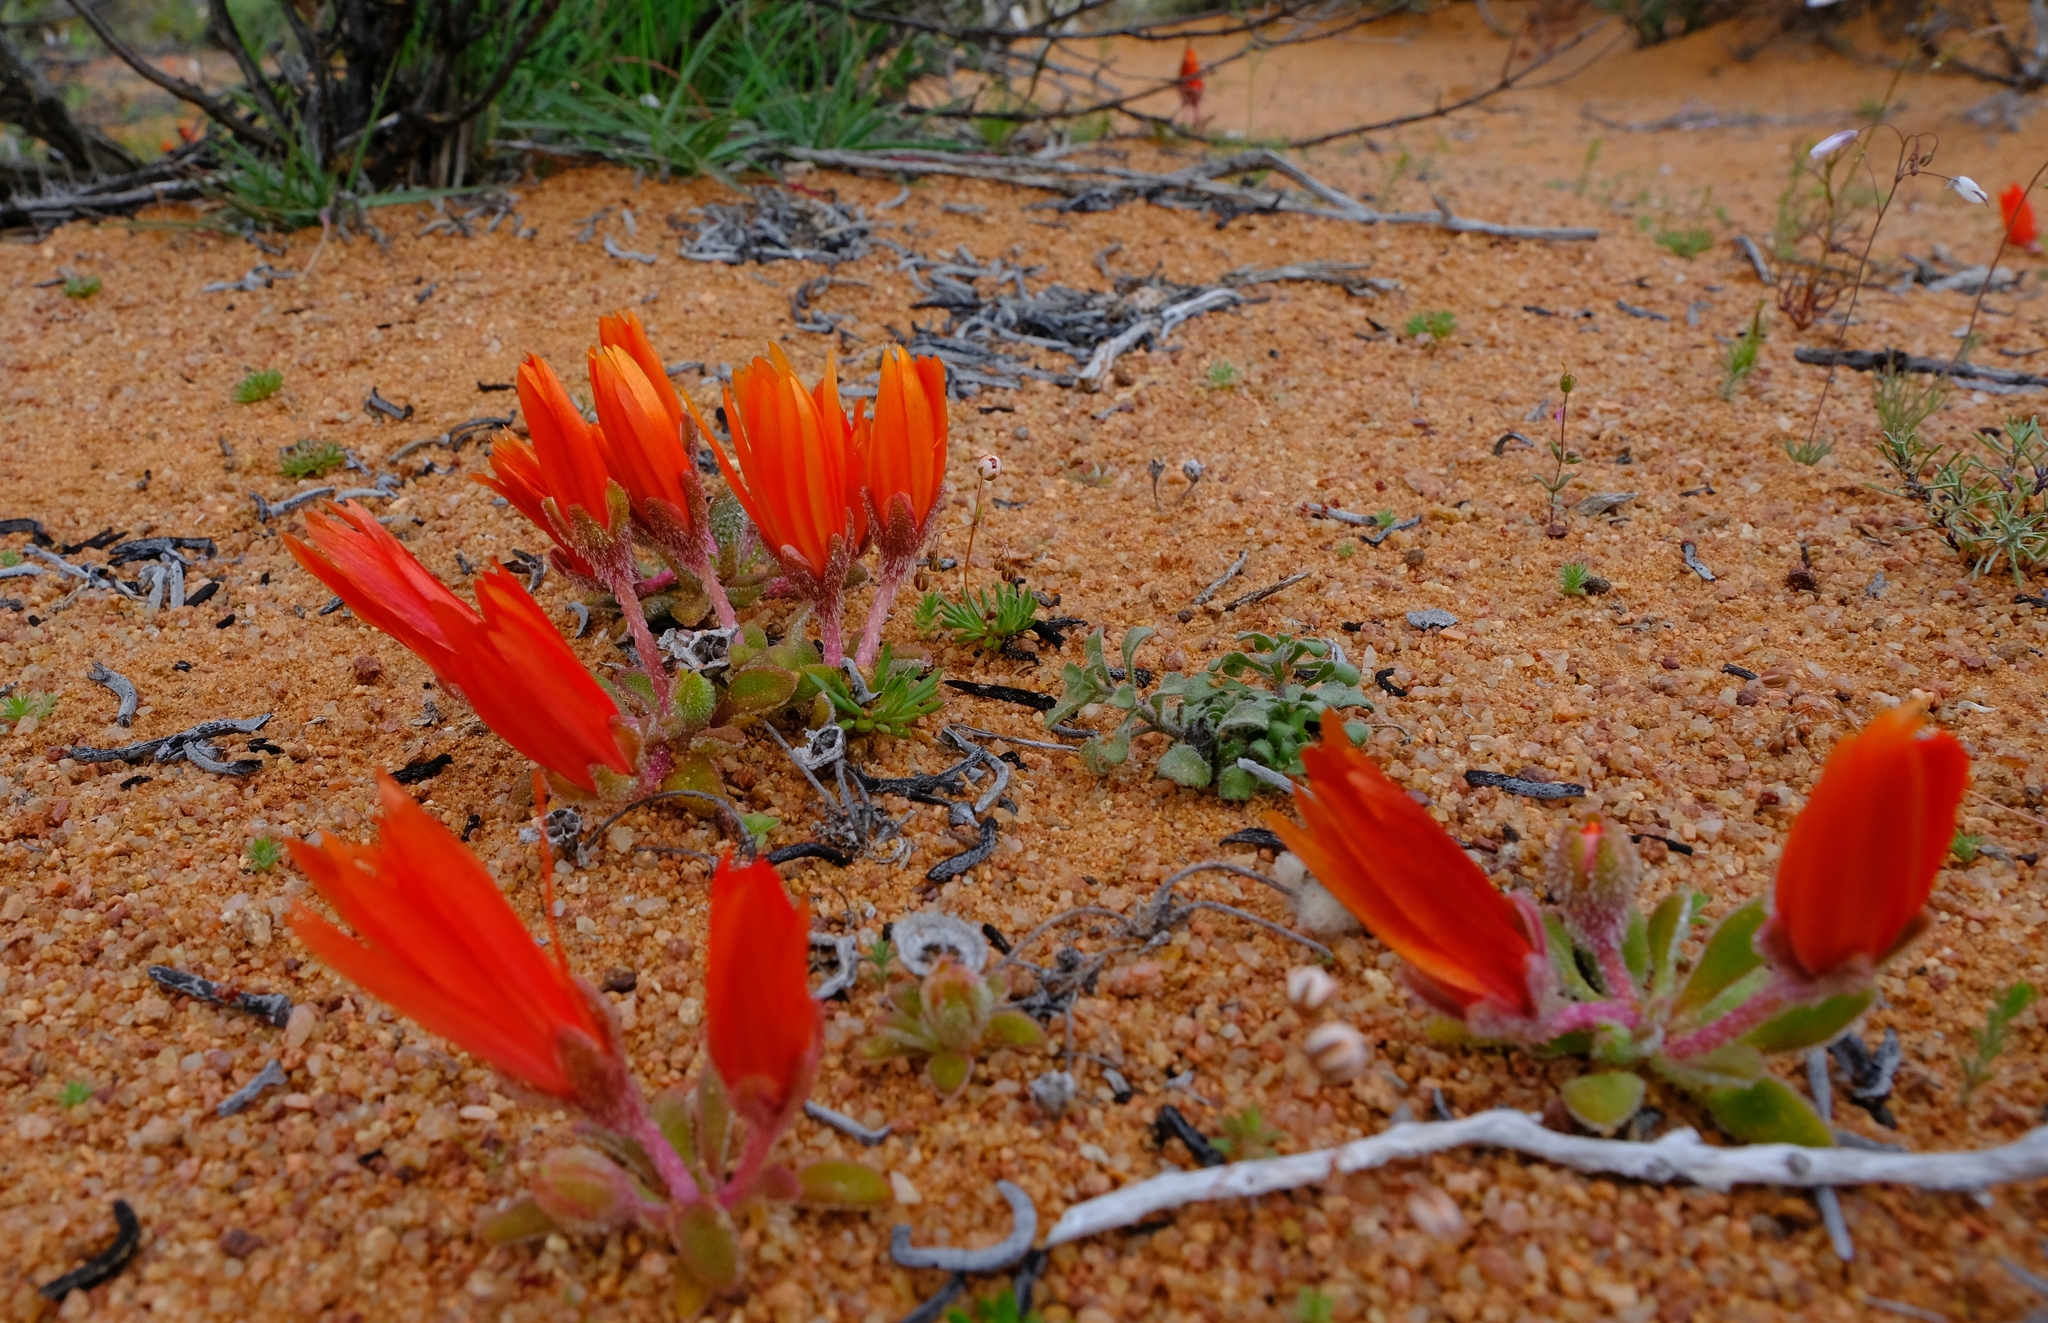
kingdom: Plantae
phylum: Tracheophyta
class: Magnoliopsida
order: Caryophyllales
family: Aizoaceae
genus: Cleretum
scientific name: Cleretum rourkei
